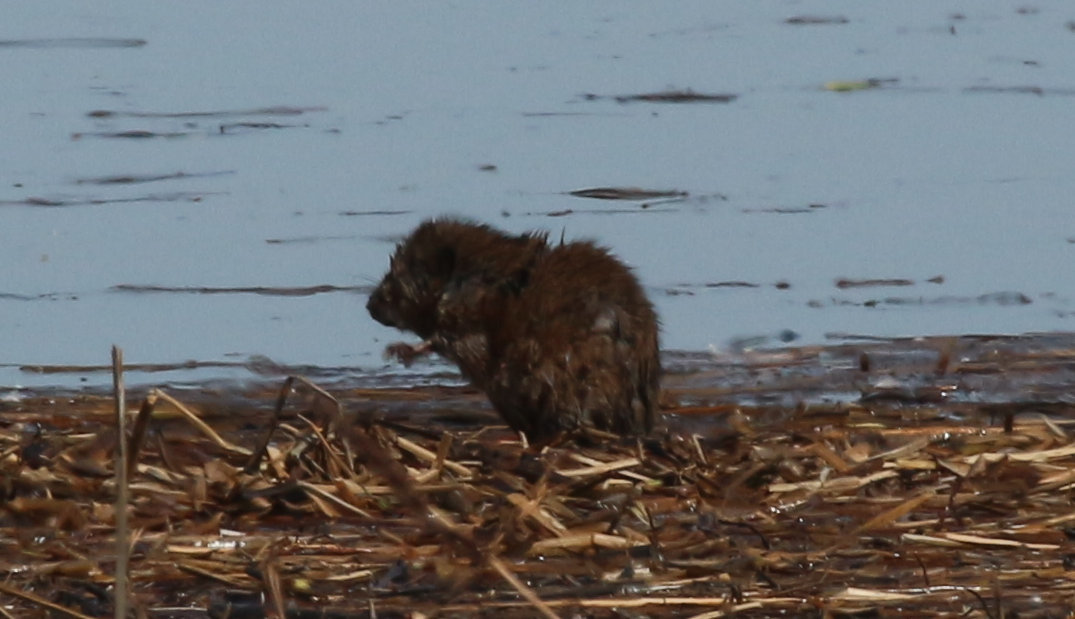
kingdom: Animalia
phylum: Chordata
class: Mammalia
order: Rodentia
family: Cricetidae
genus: Ondatra
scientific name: Ondatra zibethicus
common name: Muskrat
